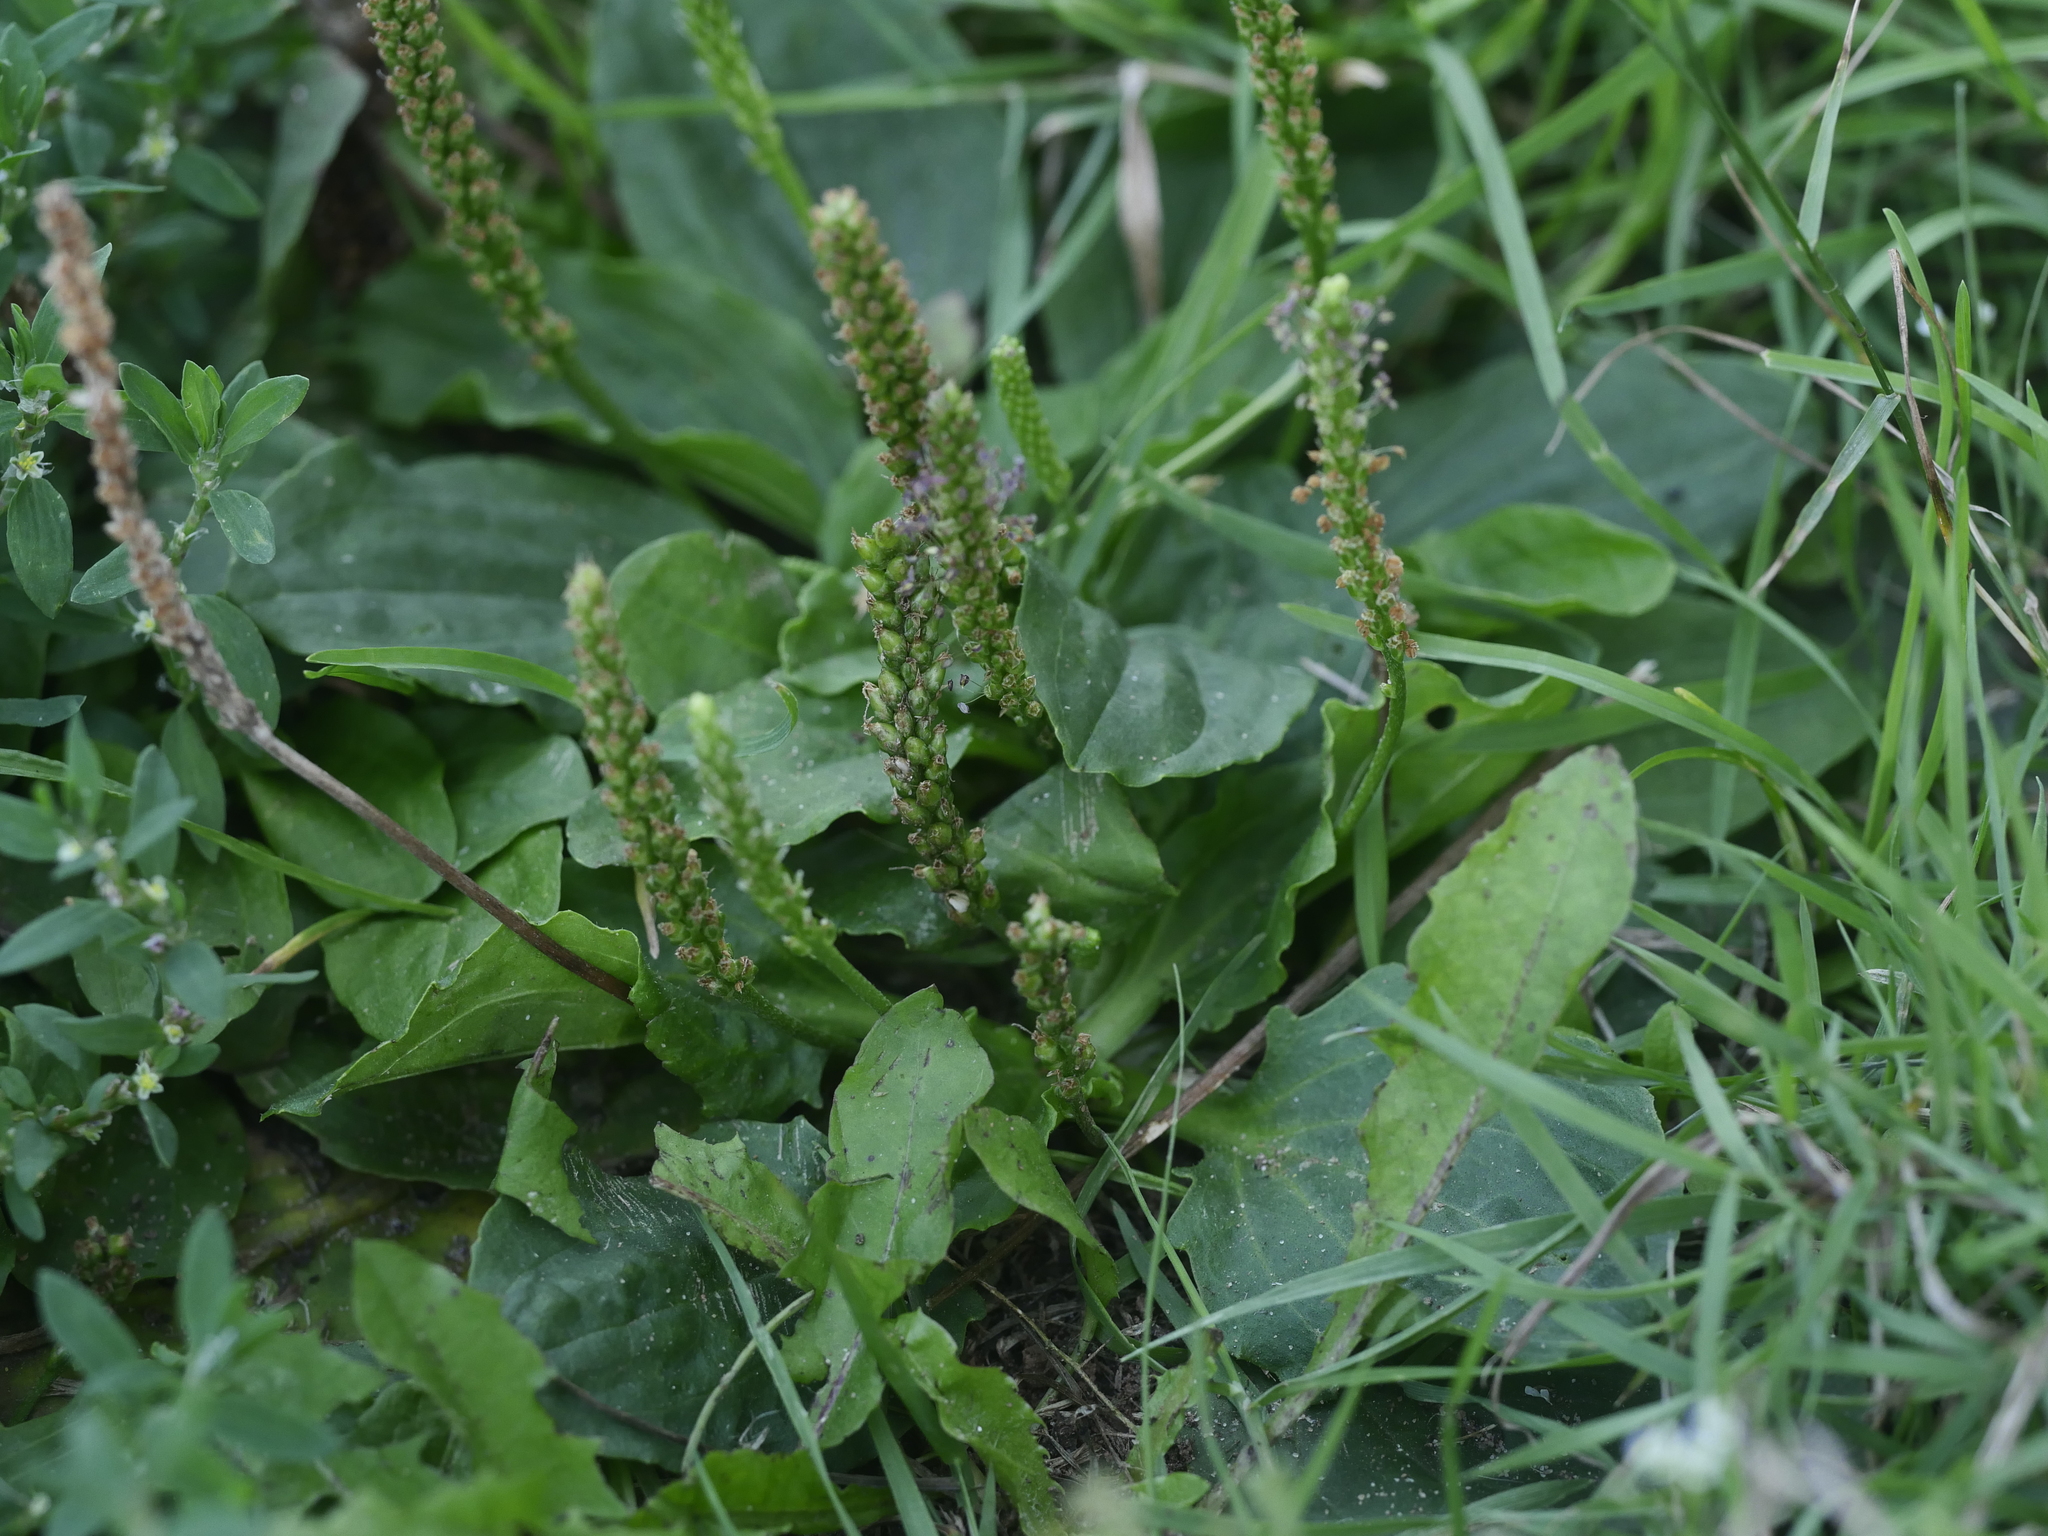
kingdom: Plantae
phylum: Tracheophyta
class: Magnoliopsida
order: Lamiales
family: Plantaginaceae
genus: Plantago
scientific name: Plantago major
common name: Common plantain
